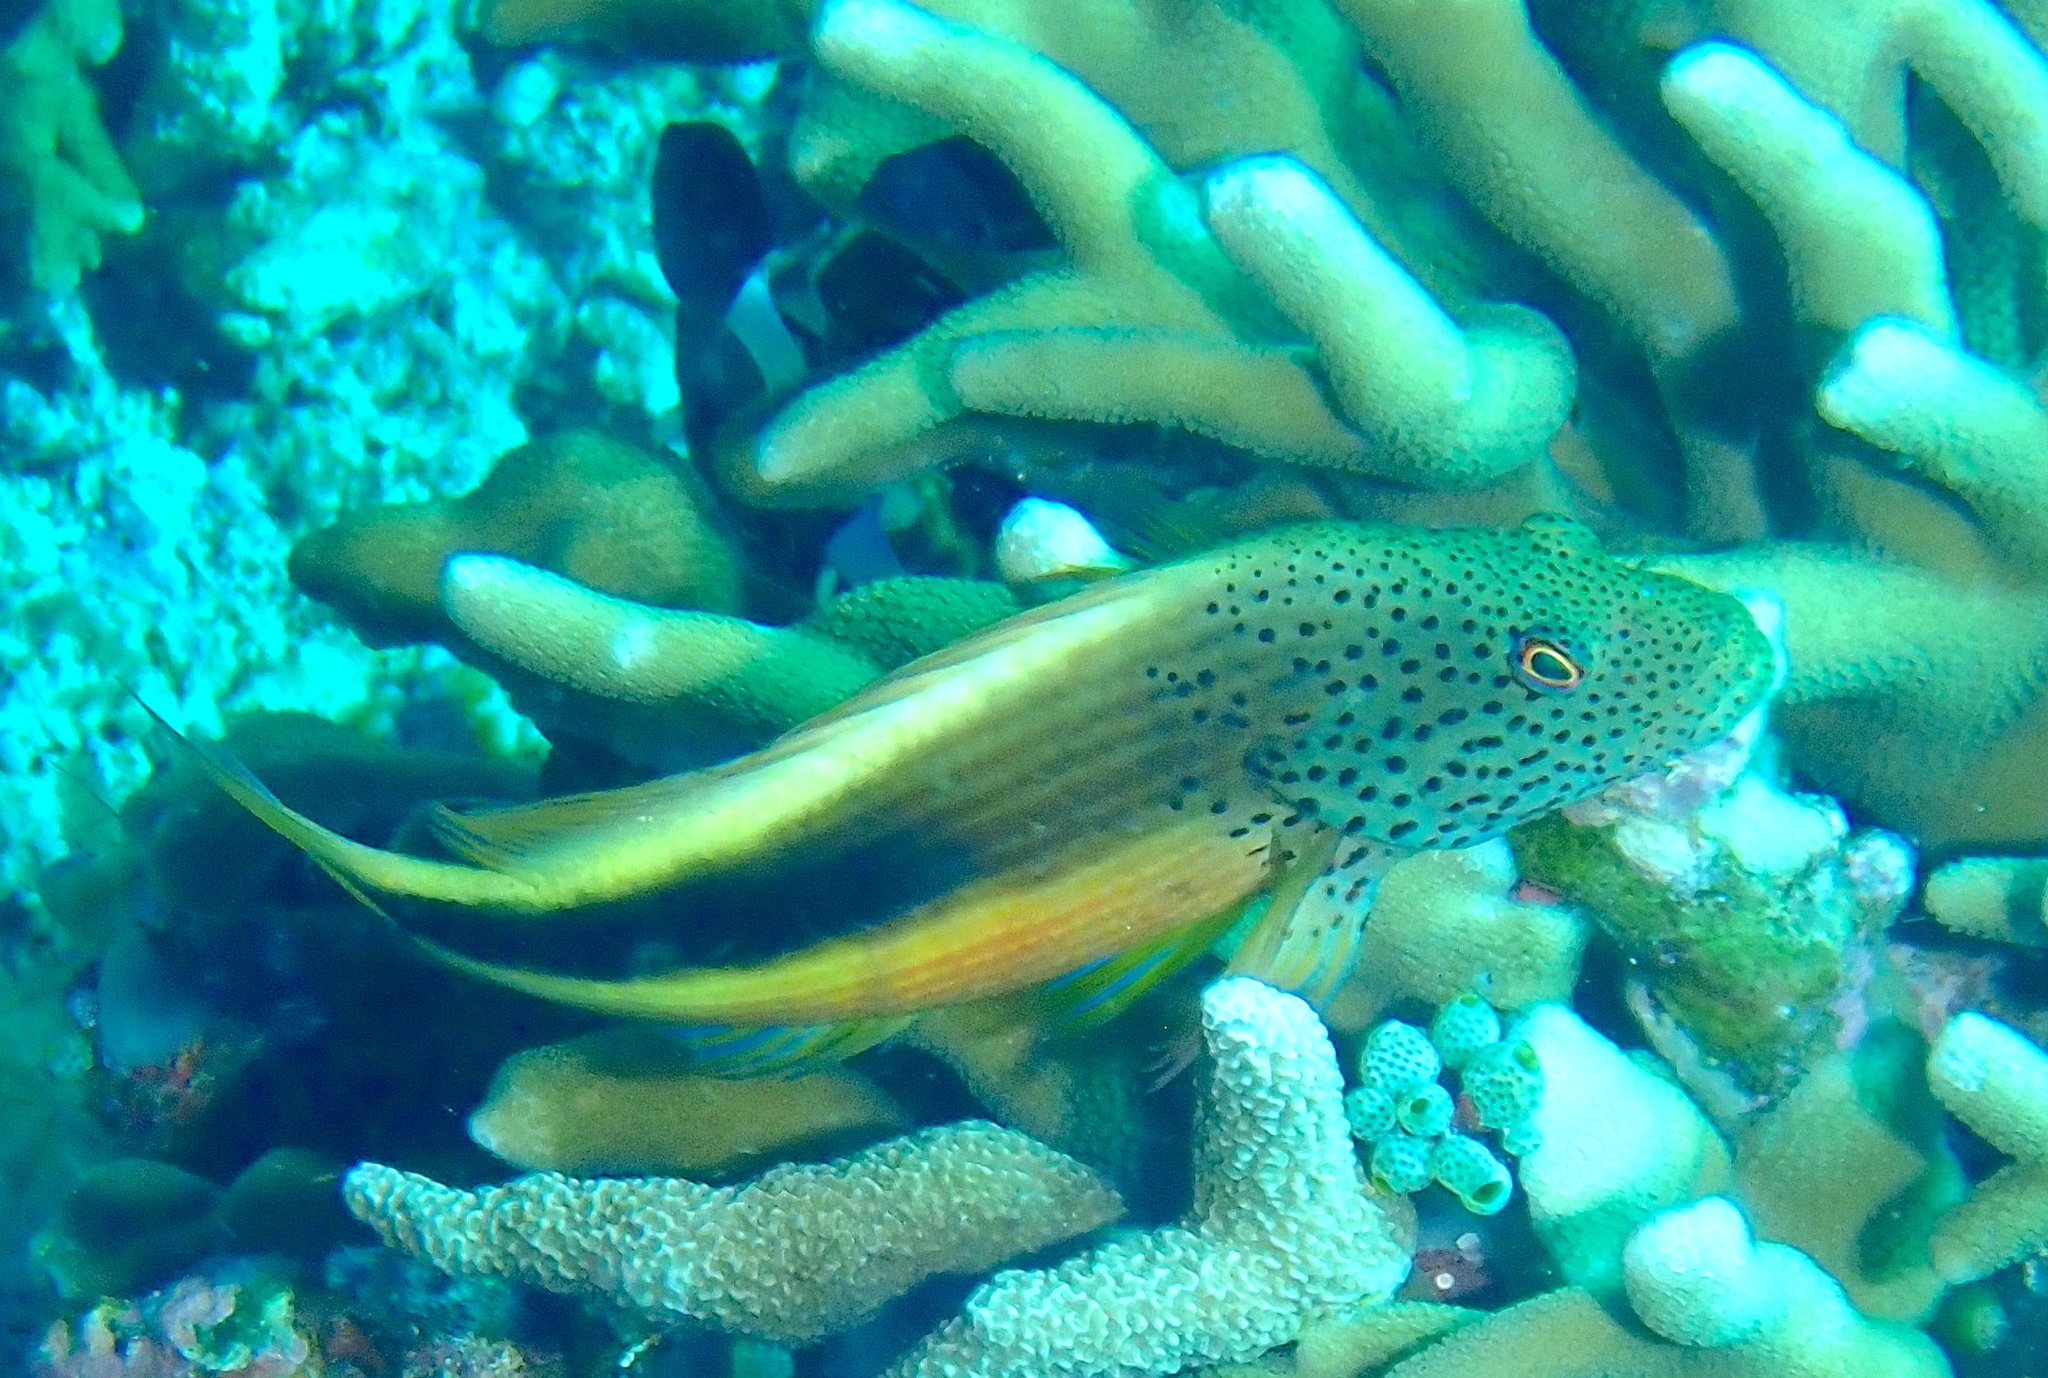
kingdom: Animalia
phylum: Chordata
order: Perciformes
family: Cirrhitidae
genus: Paracirrhites
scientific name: Paracirrhites forsteri
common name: Freckled hawkfish
